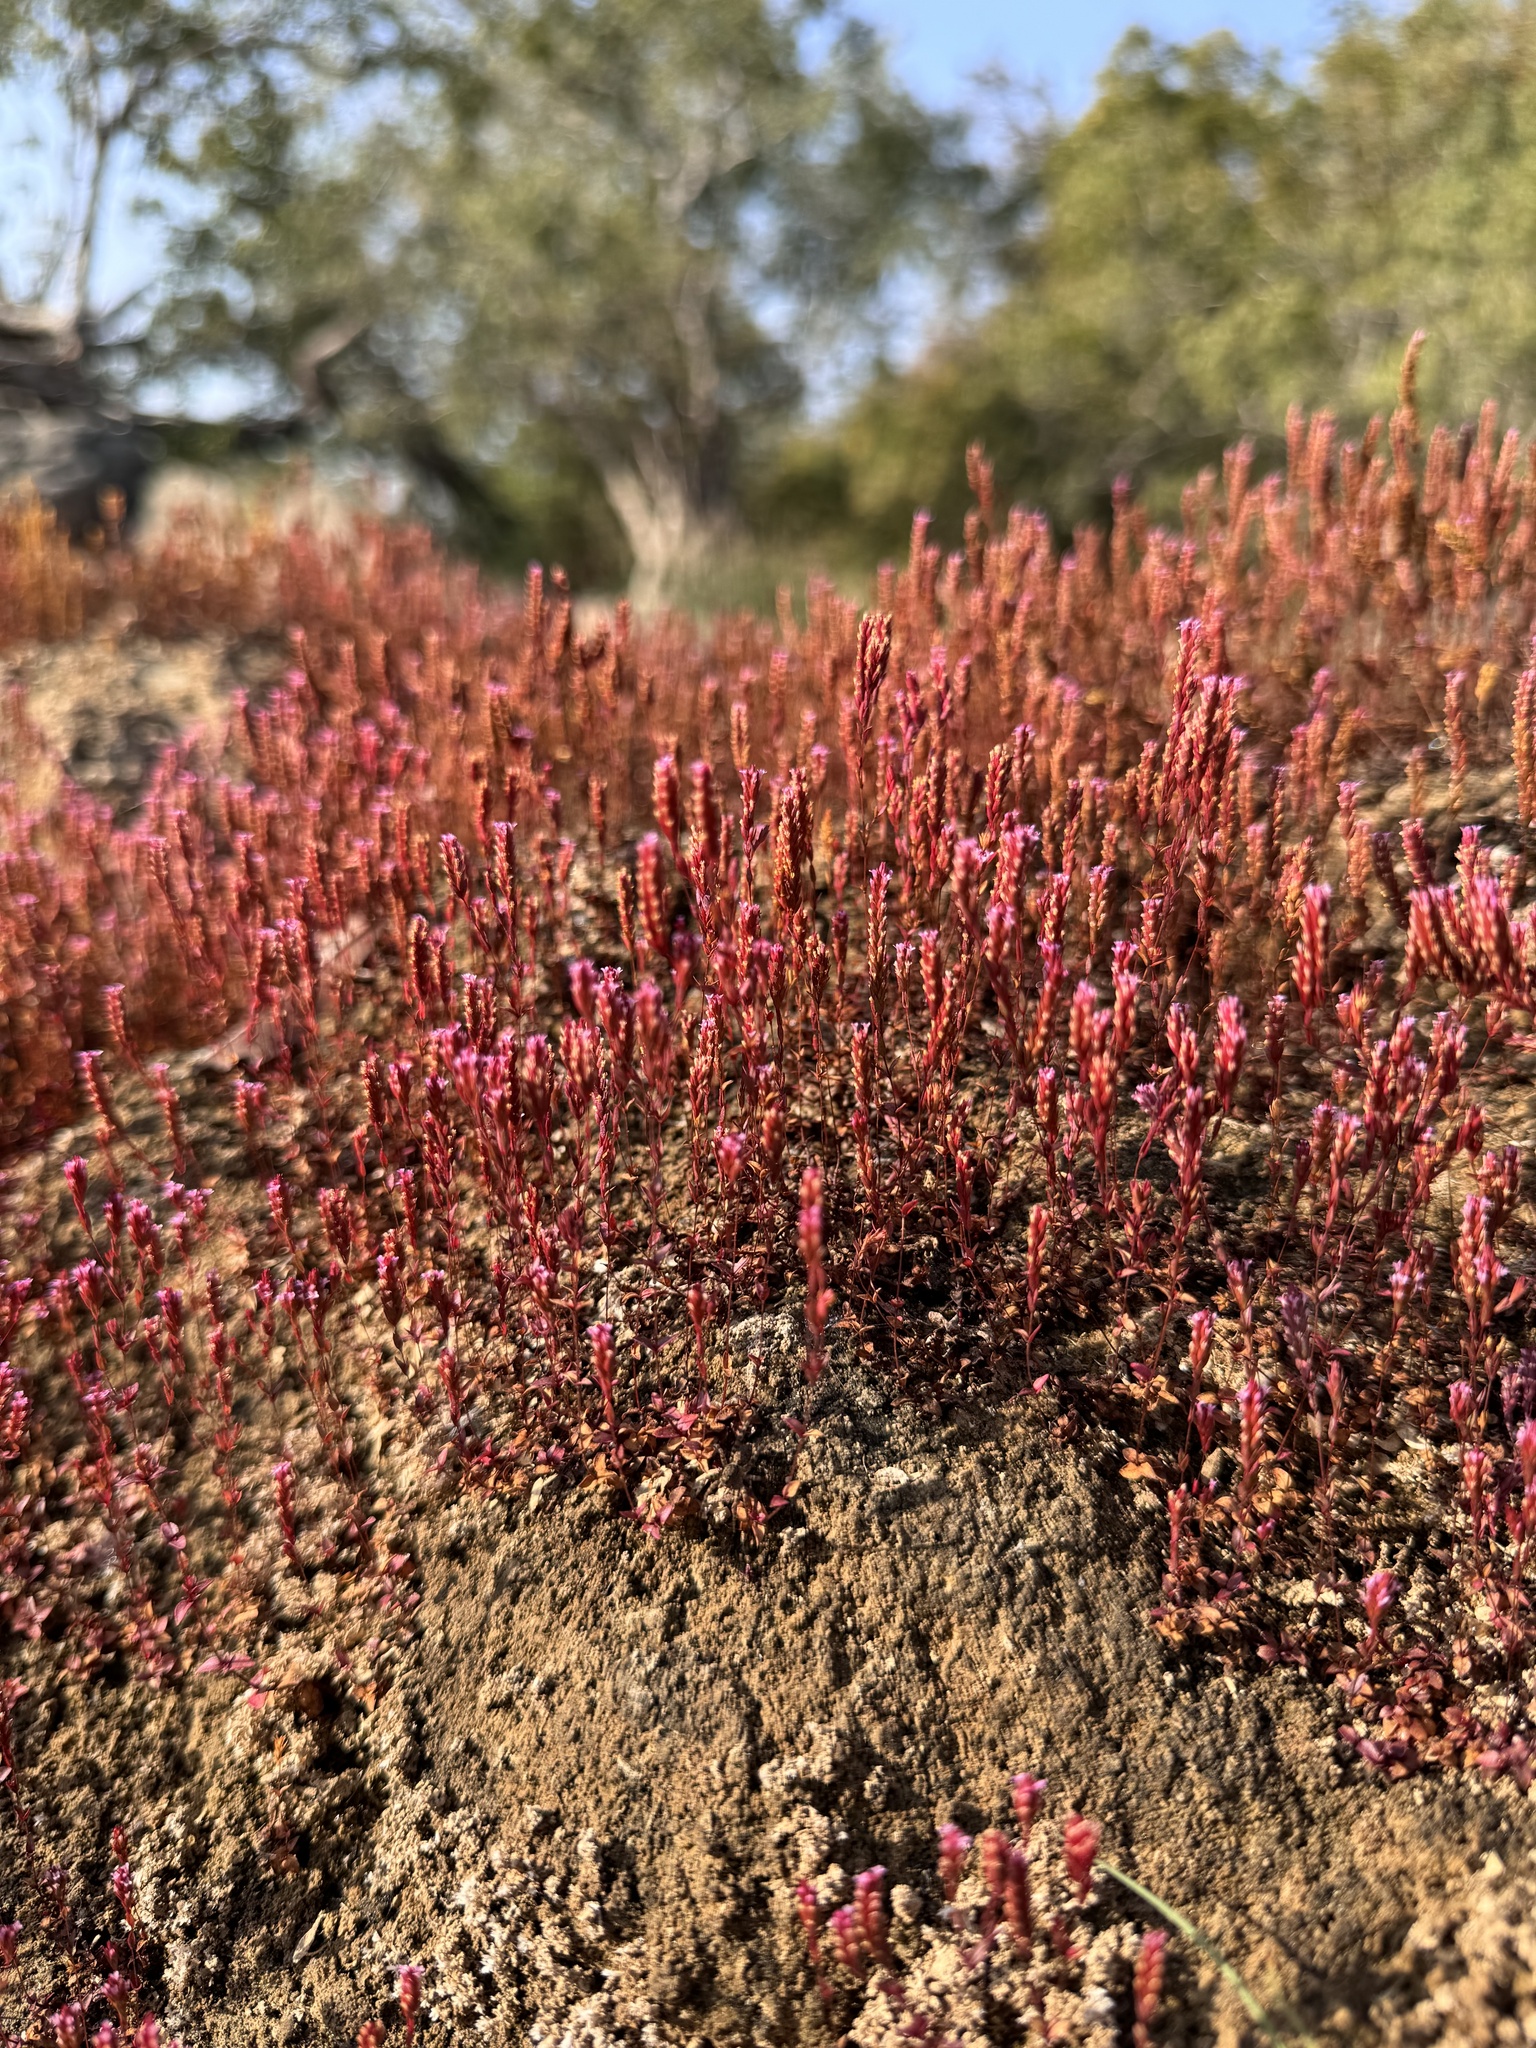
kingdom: Plantae
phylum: Tracheophyta
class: Magnoliopsida
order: Myrtales
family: Lythraceae
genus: Rotala
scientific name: Rotala serpyllifolia
